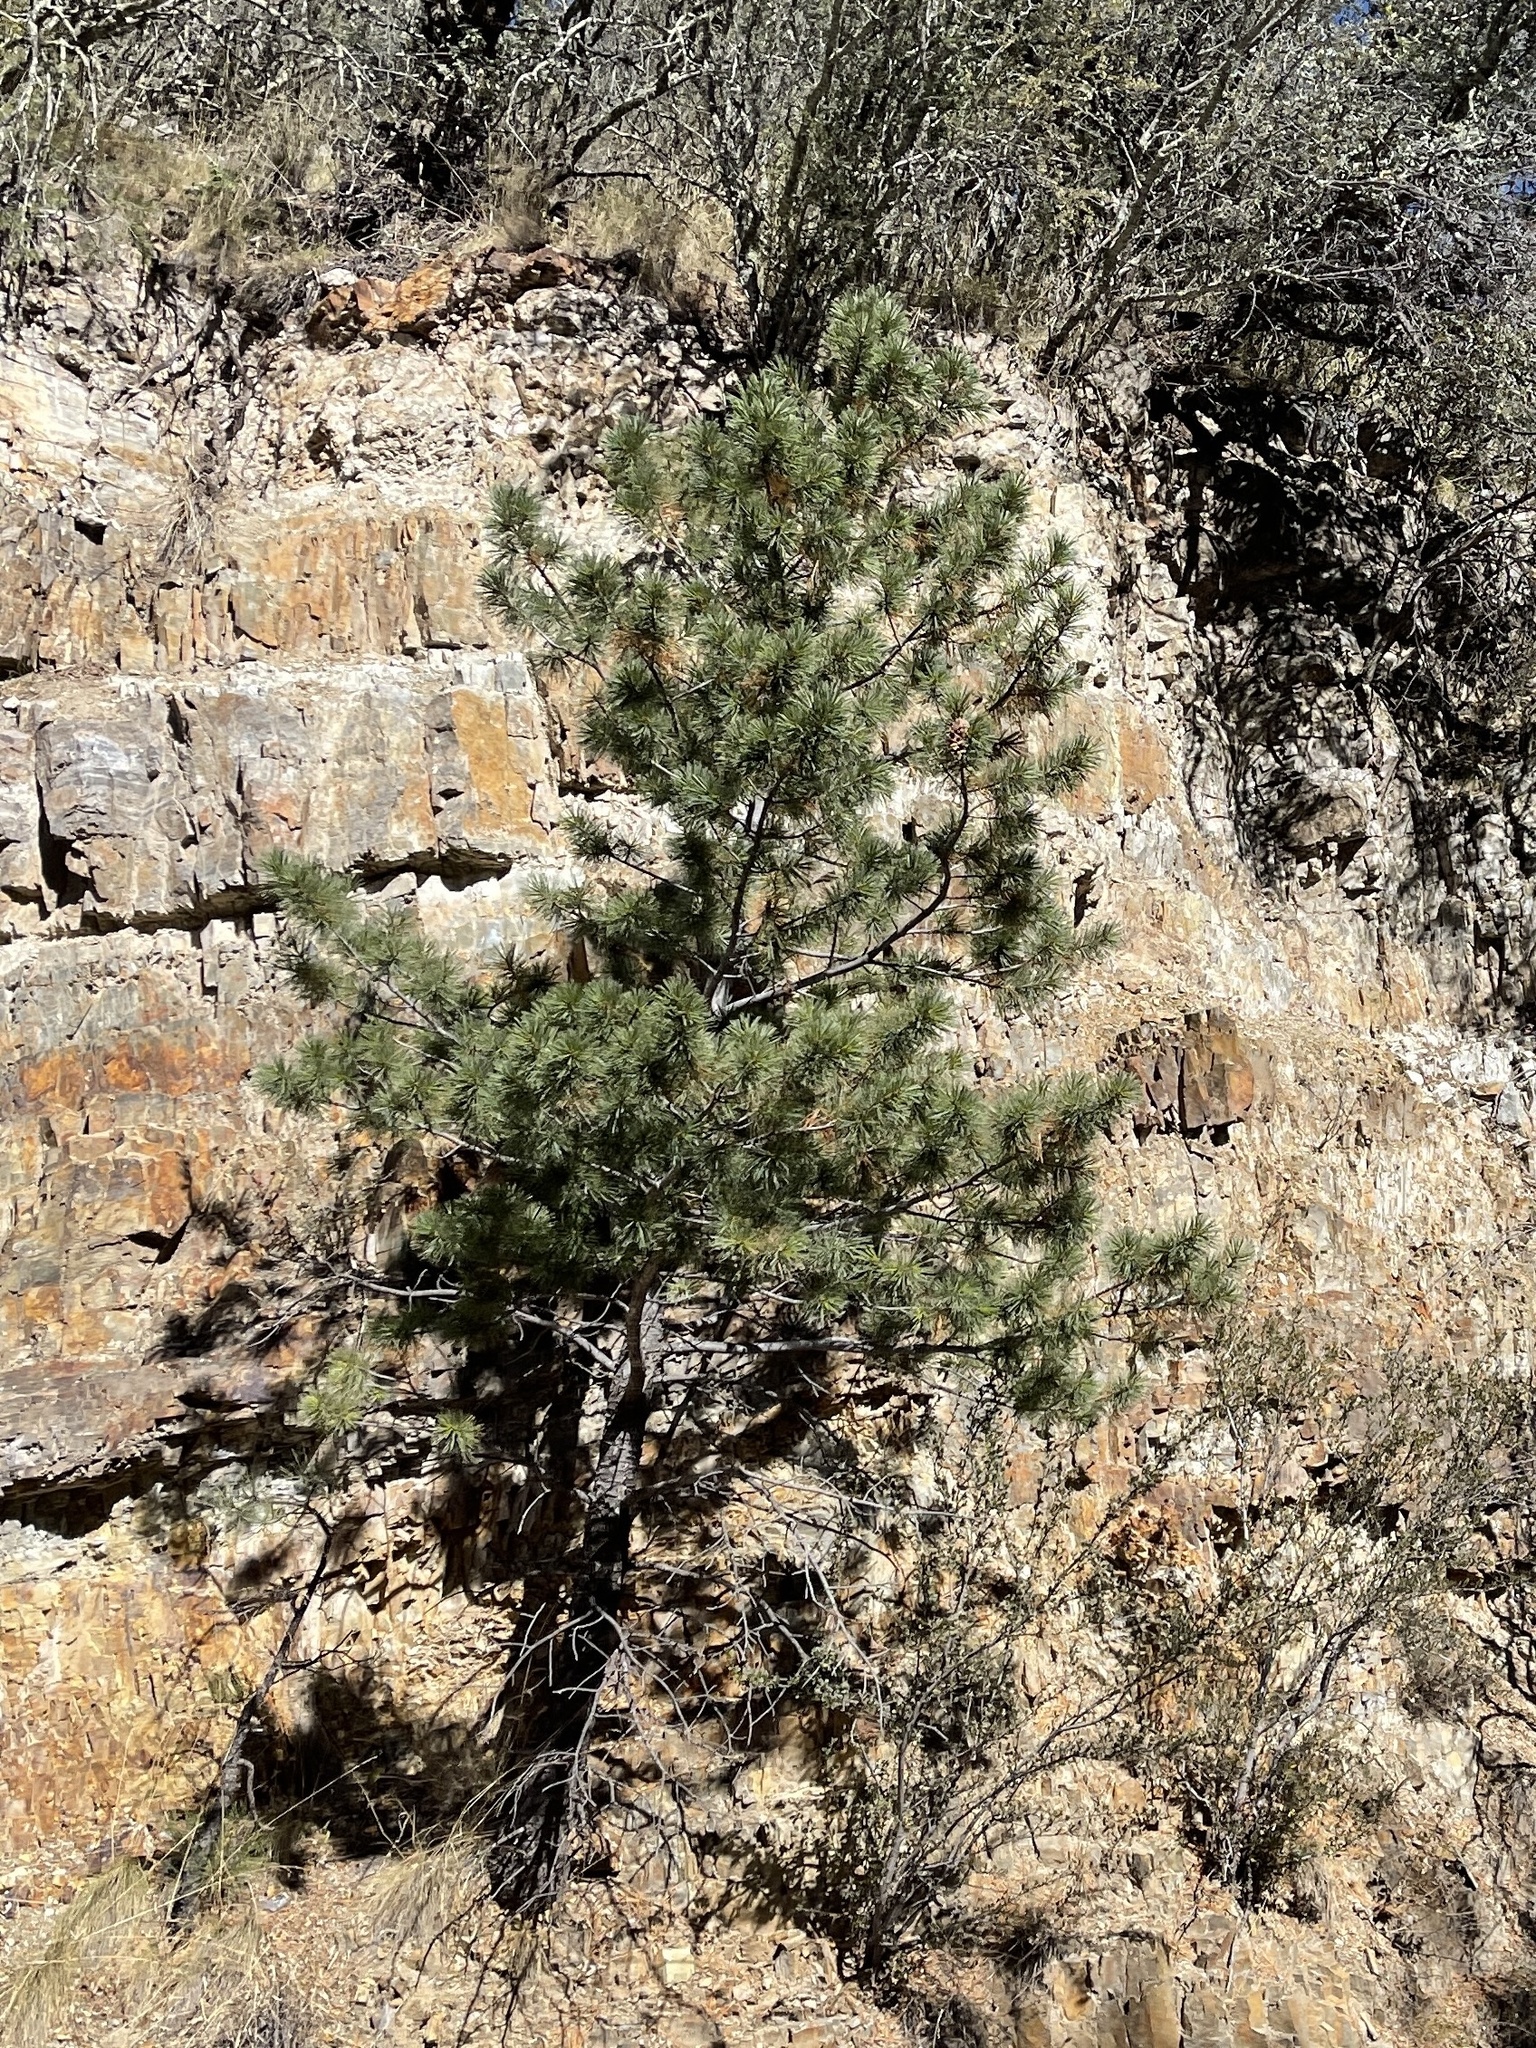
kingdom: Plantae
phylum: Tracheophyta
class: Pinopsida
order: Pinales
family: Pinaceae
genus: Pinus
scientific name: Pinus edulis
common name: Colorado pinyon
